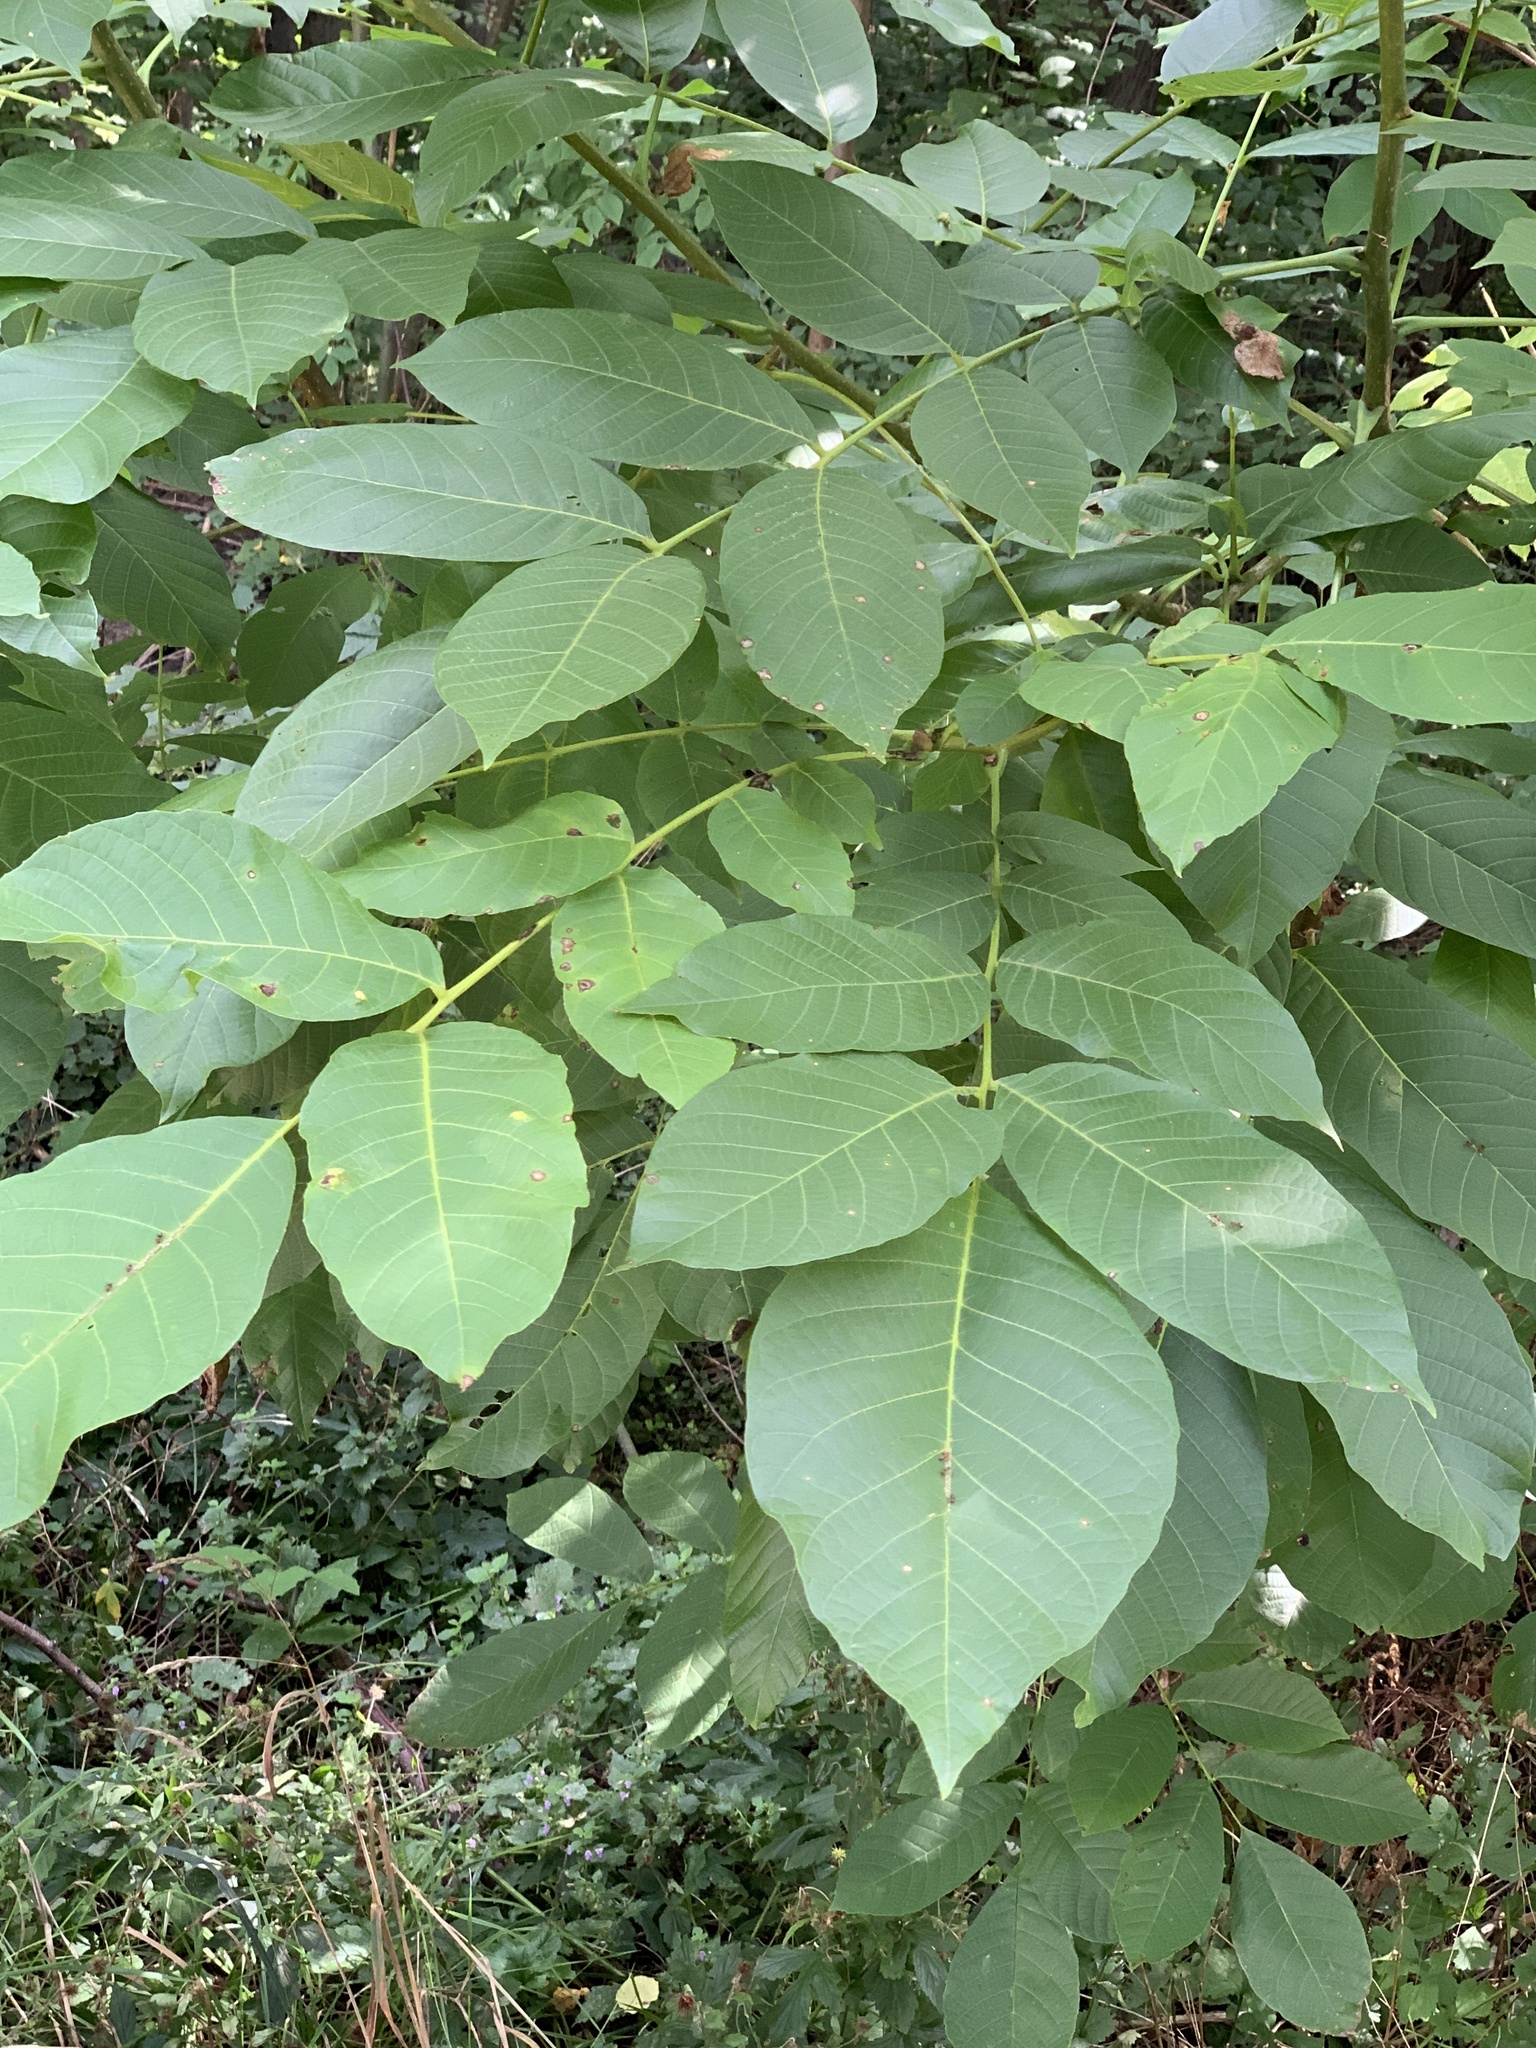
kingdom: Plantae
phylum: Tracheophyta
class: Magnoliopsida
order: Fagales
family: Juglandaceae
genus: Juglans
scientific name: Juglans regia
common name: Walnut
